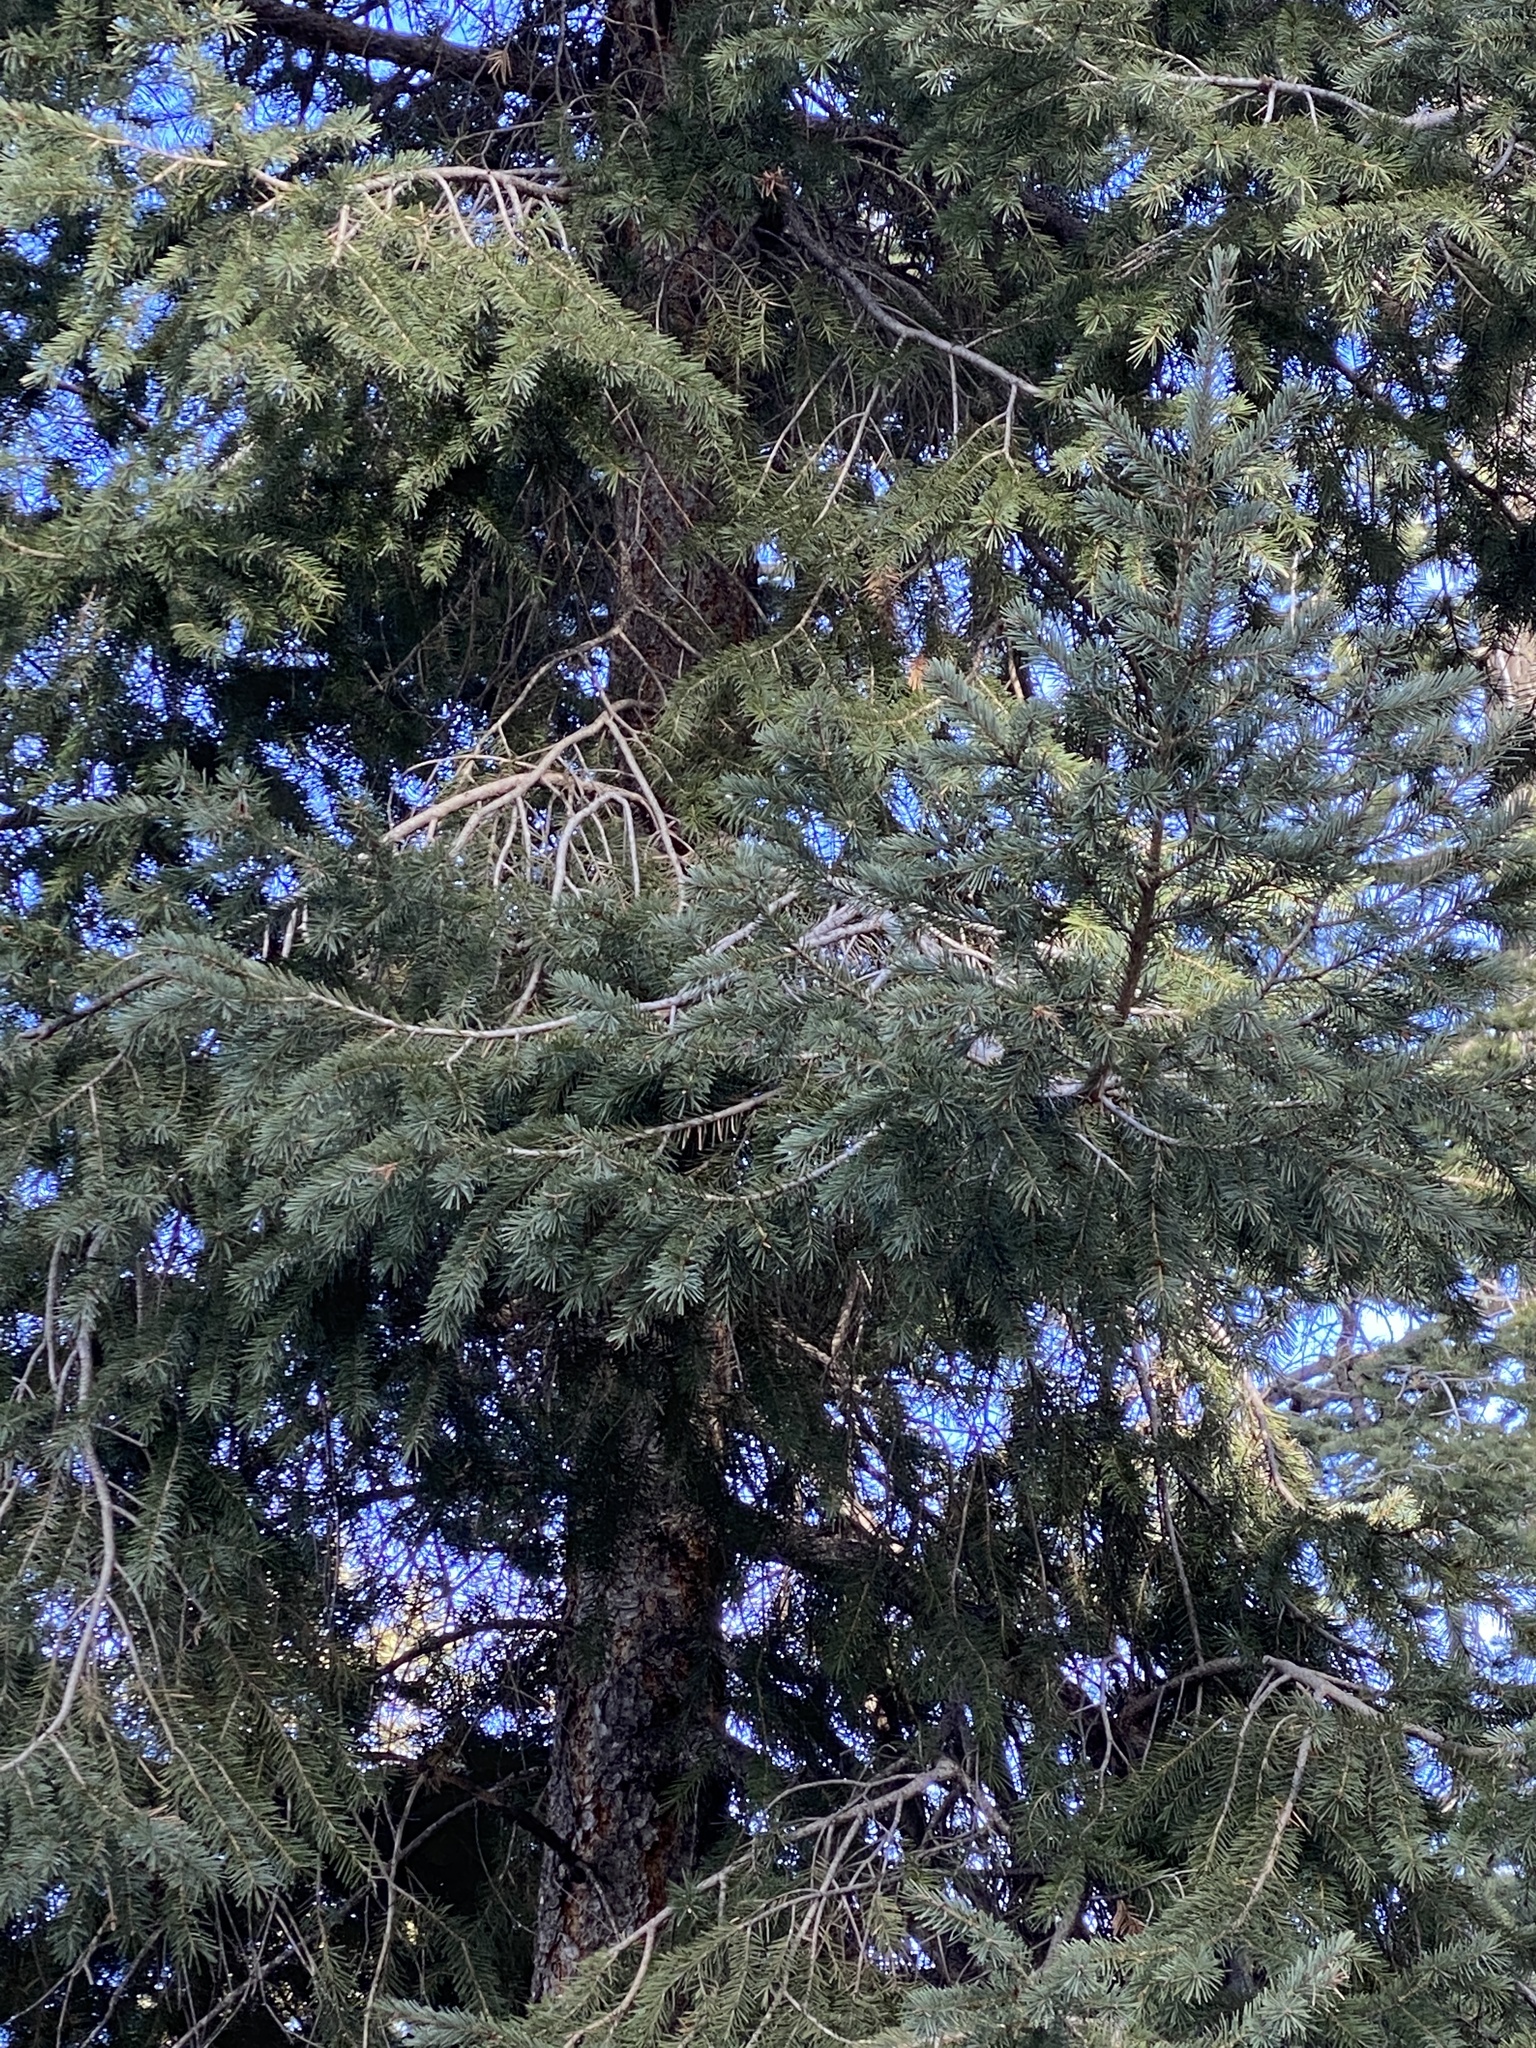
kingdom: Plantae
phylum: Tracheophyta
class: Pinopsida
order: Pinales
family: Pinaceae
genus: Picea
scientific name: Picea engelmannii
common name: Engelmann spruce
